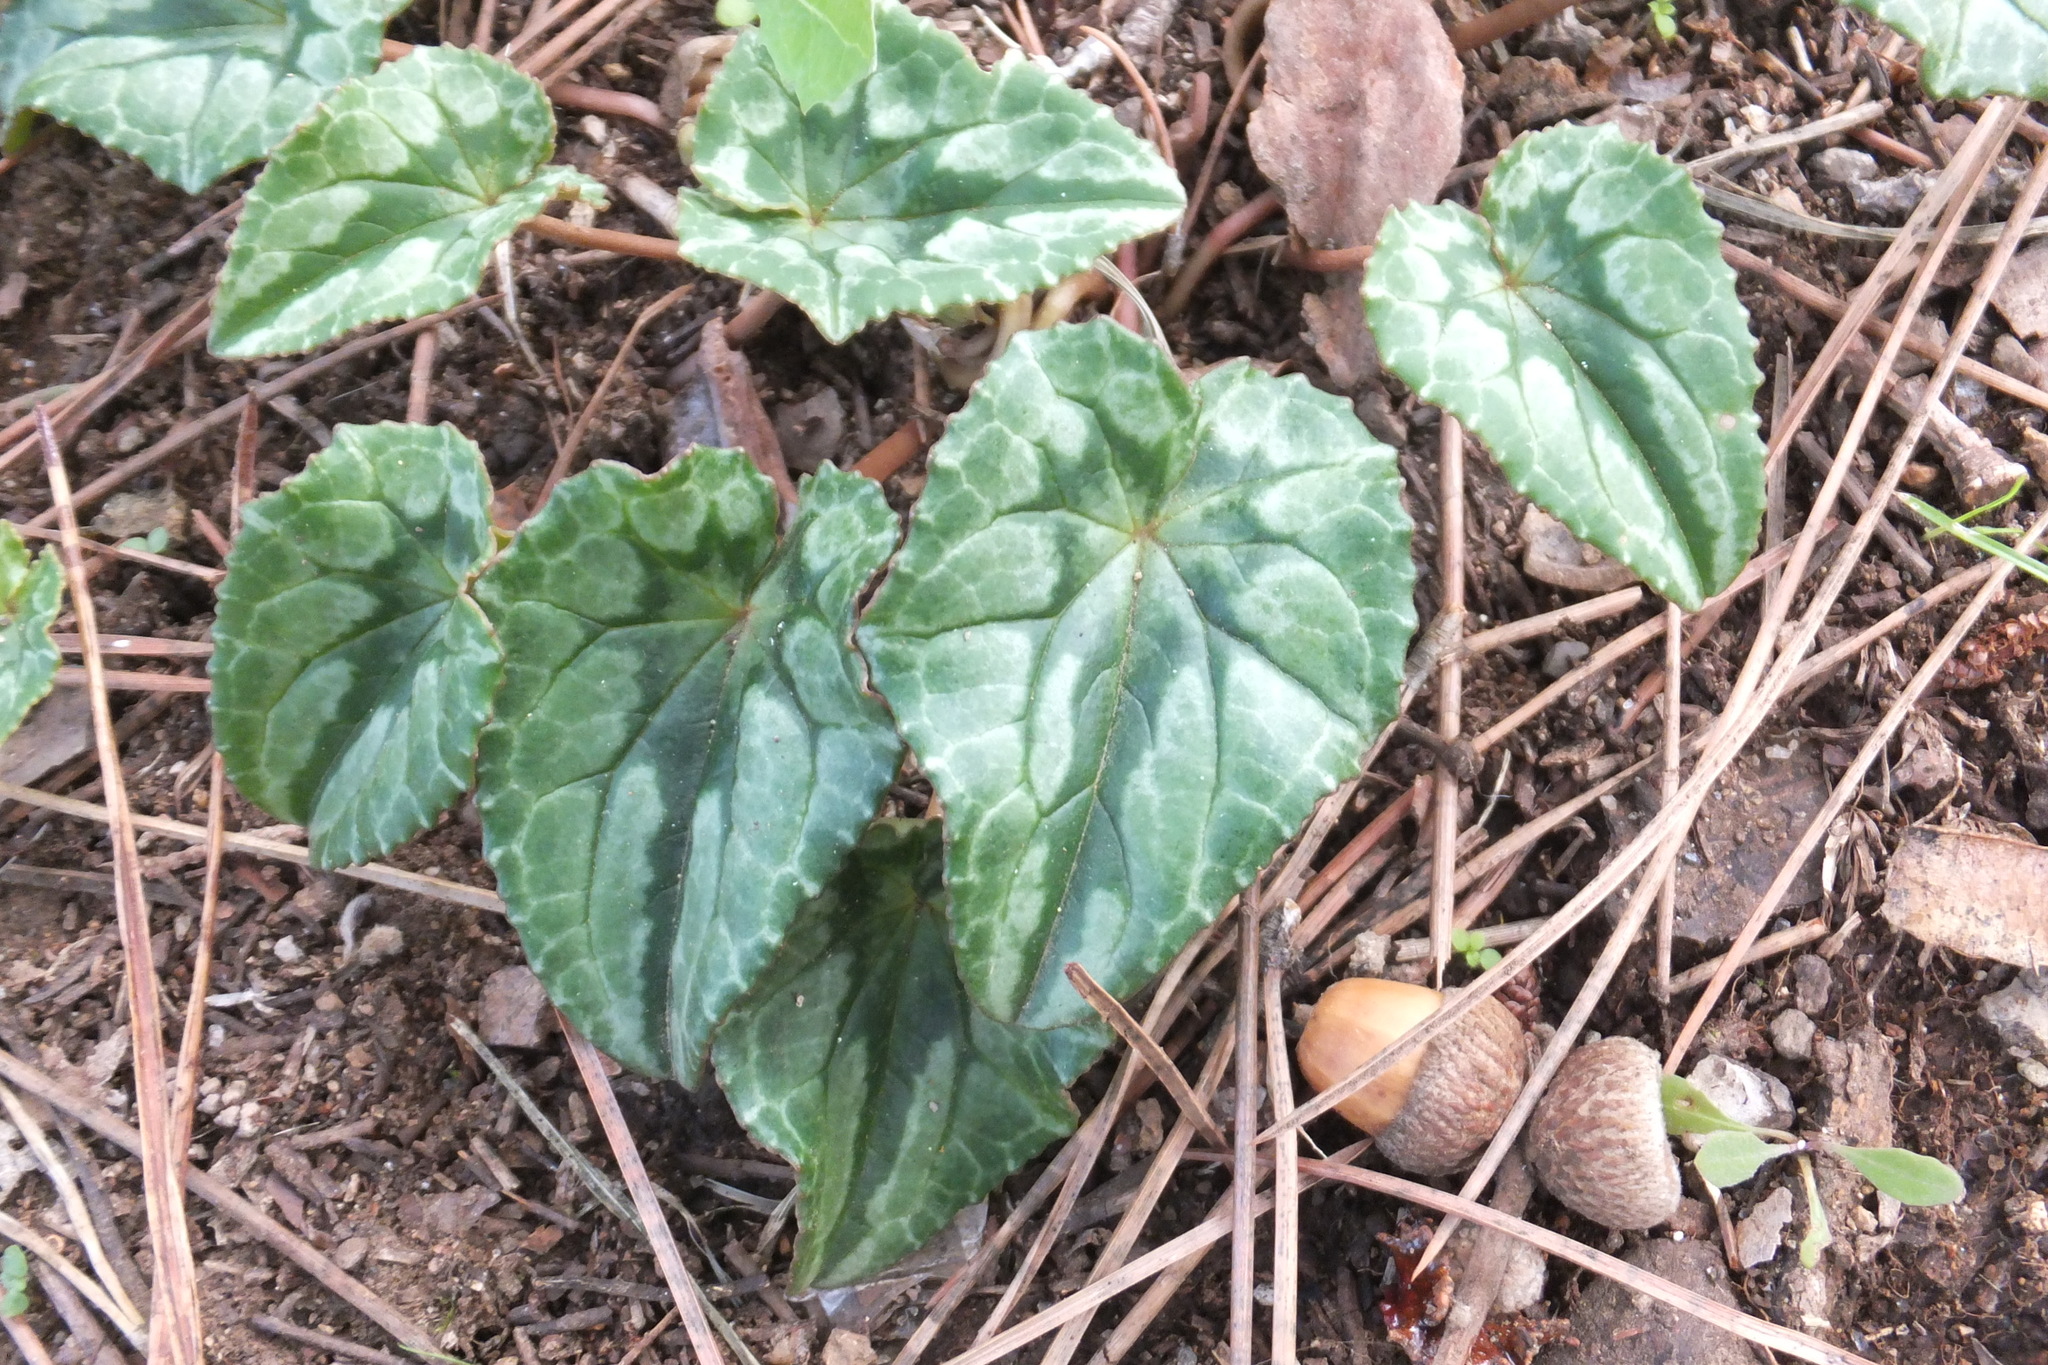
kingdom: Plantae
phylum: Tracheophyta
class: Magnoliopsida
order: Ericales
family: Primulaceae
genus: Cyclamen
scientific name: Cyclamen hederifolium
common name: Sowbread
